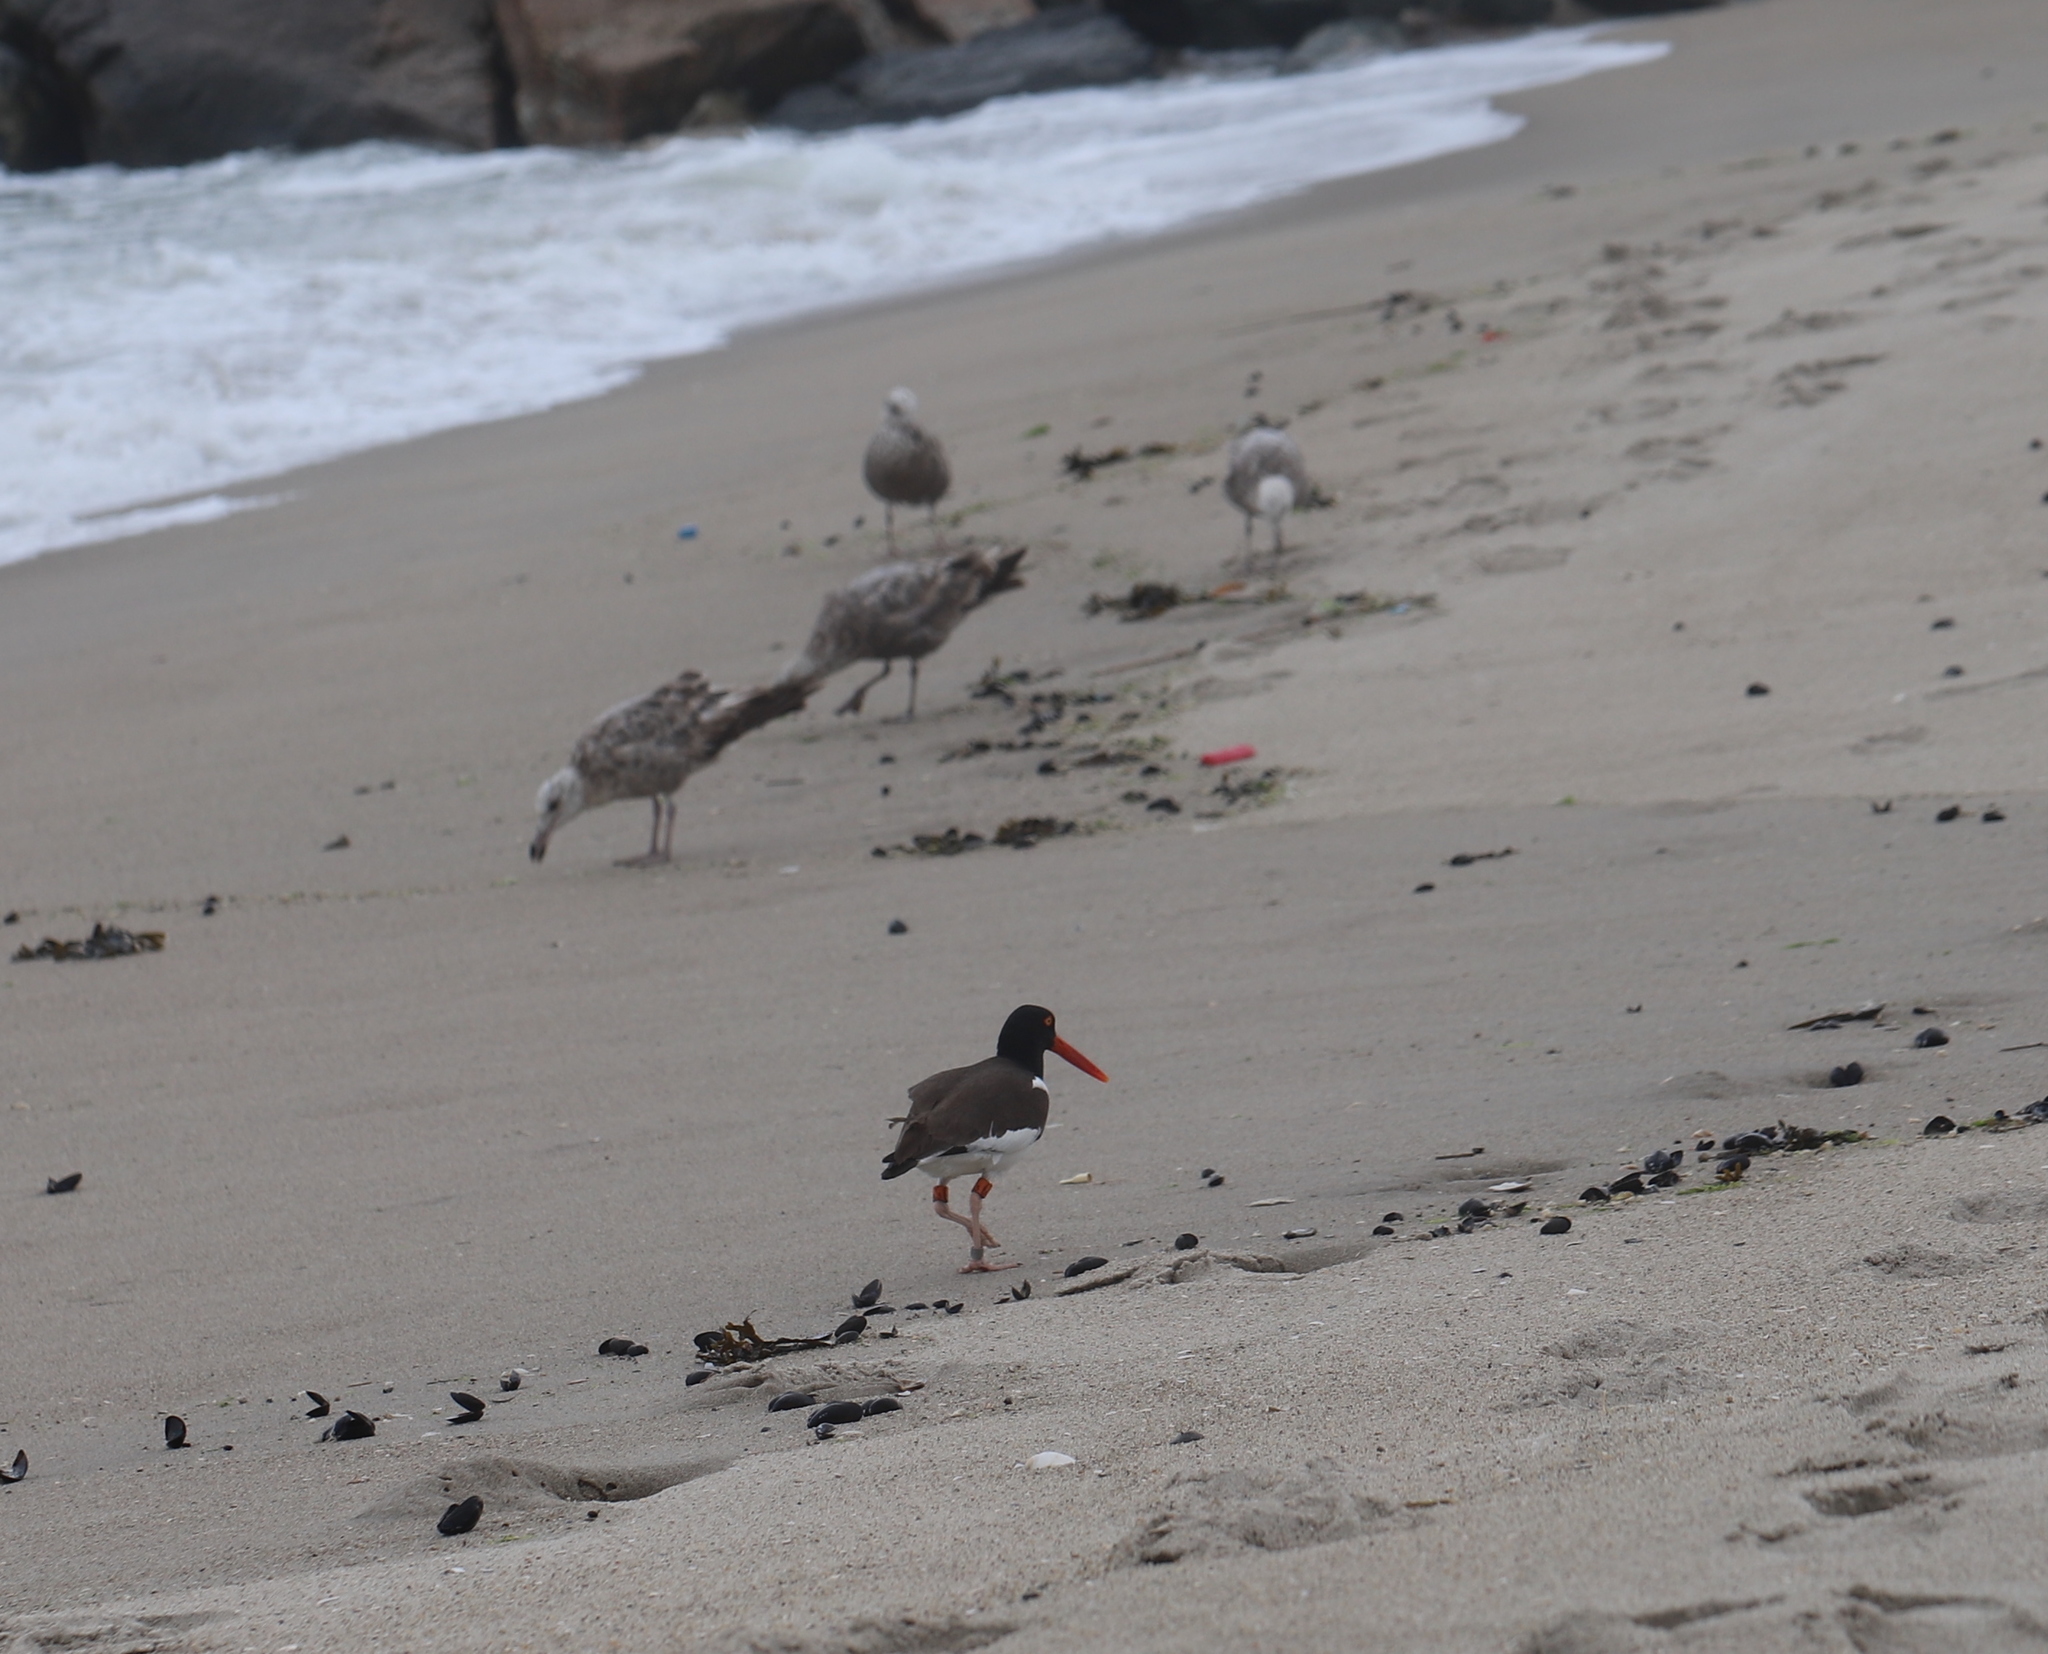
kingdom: Animalia
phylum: Chordata
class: Aves
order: Charadriiformes
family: Haematopodidae
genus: Haematopus
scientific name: Haematopus palliatus
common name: American oystercatcher
